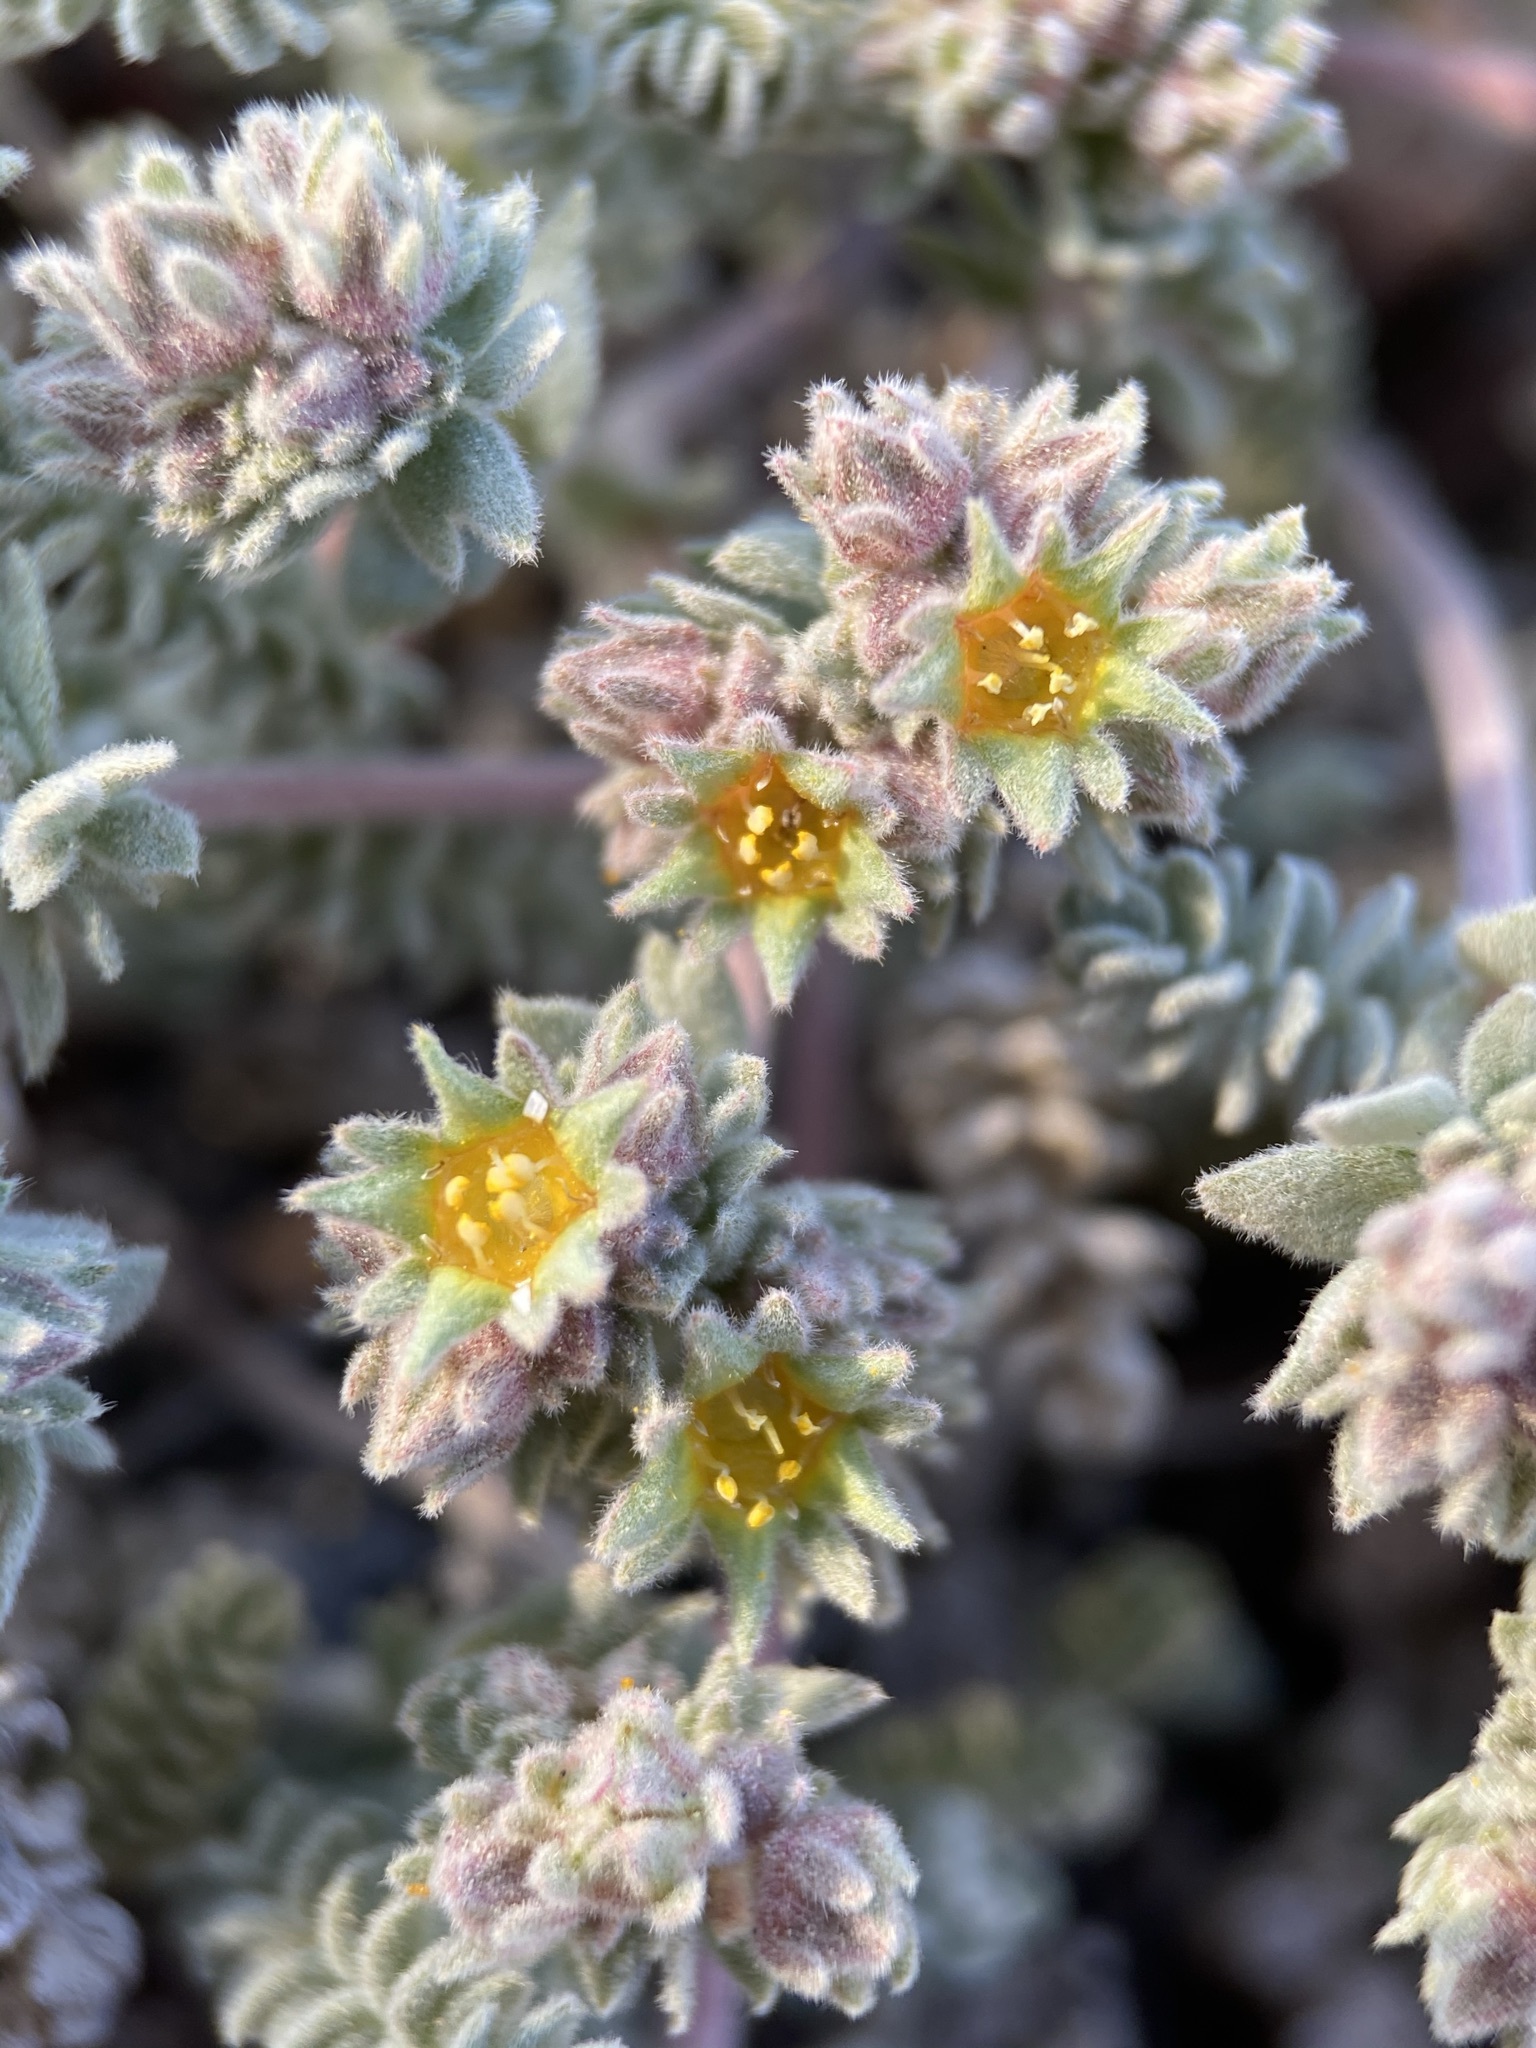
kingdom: Plantae
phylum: Tracheophyta
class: Magnoliopsida
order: Rosales
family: Rosaceae
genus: Potentilla
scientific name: Potentilla rhypara
